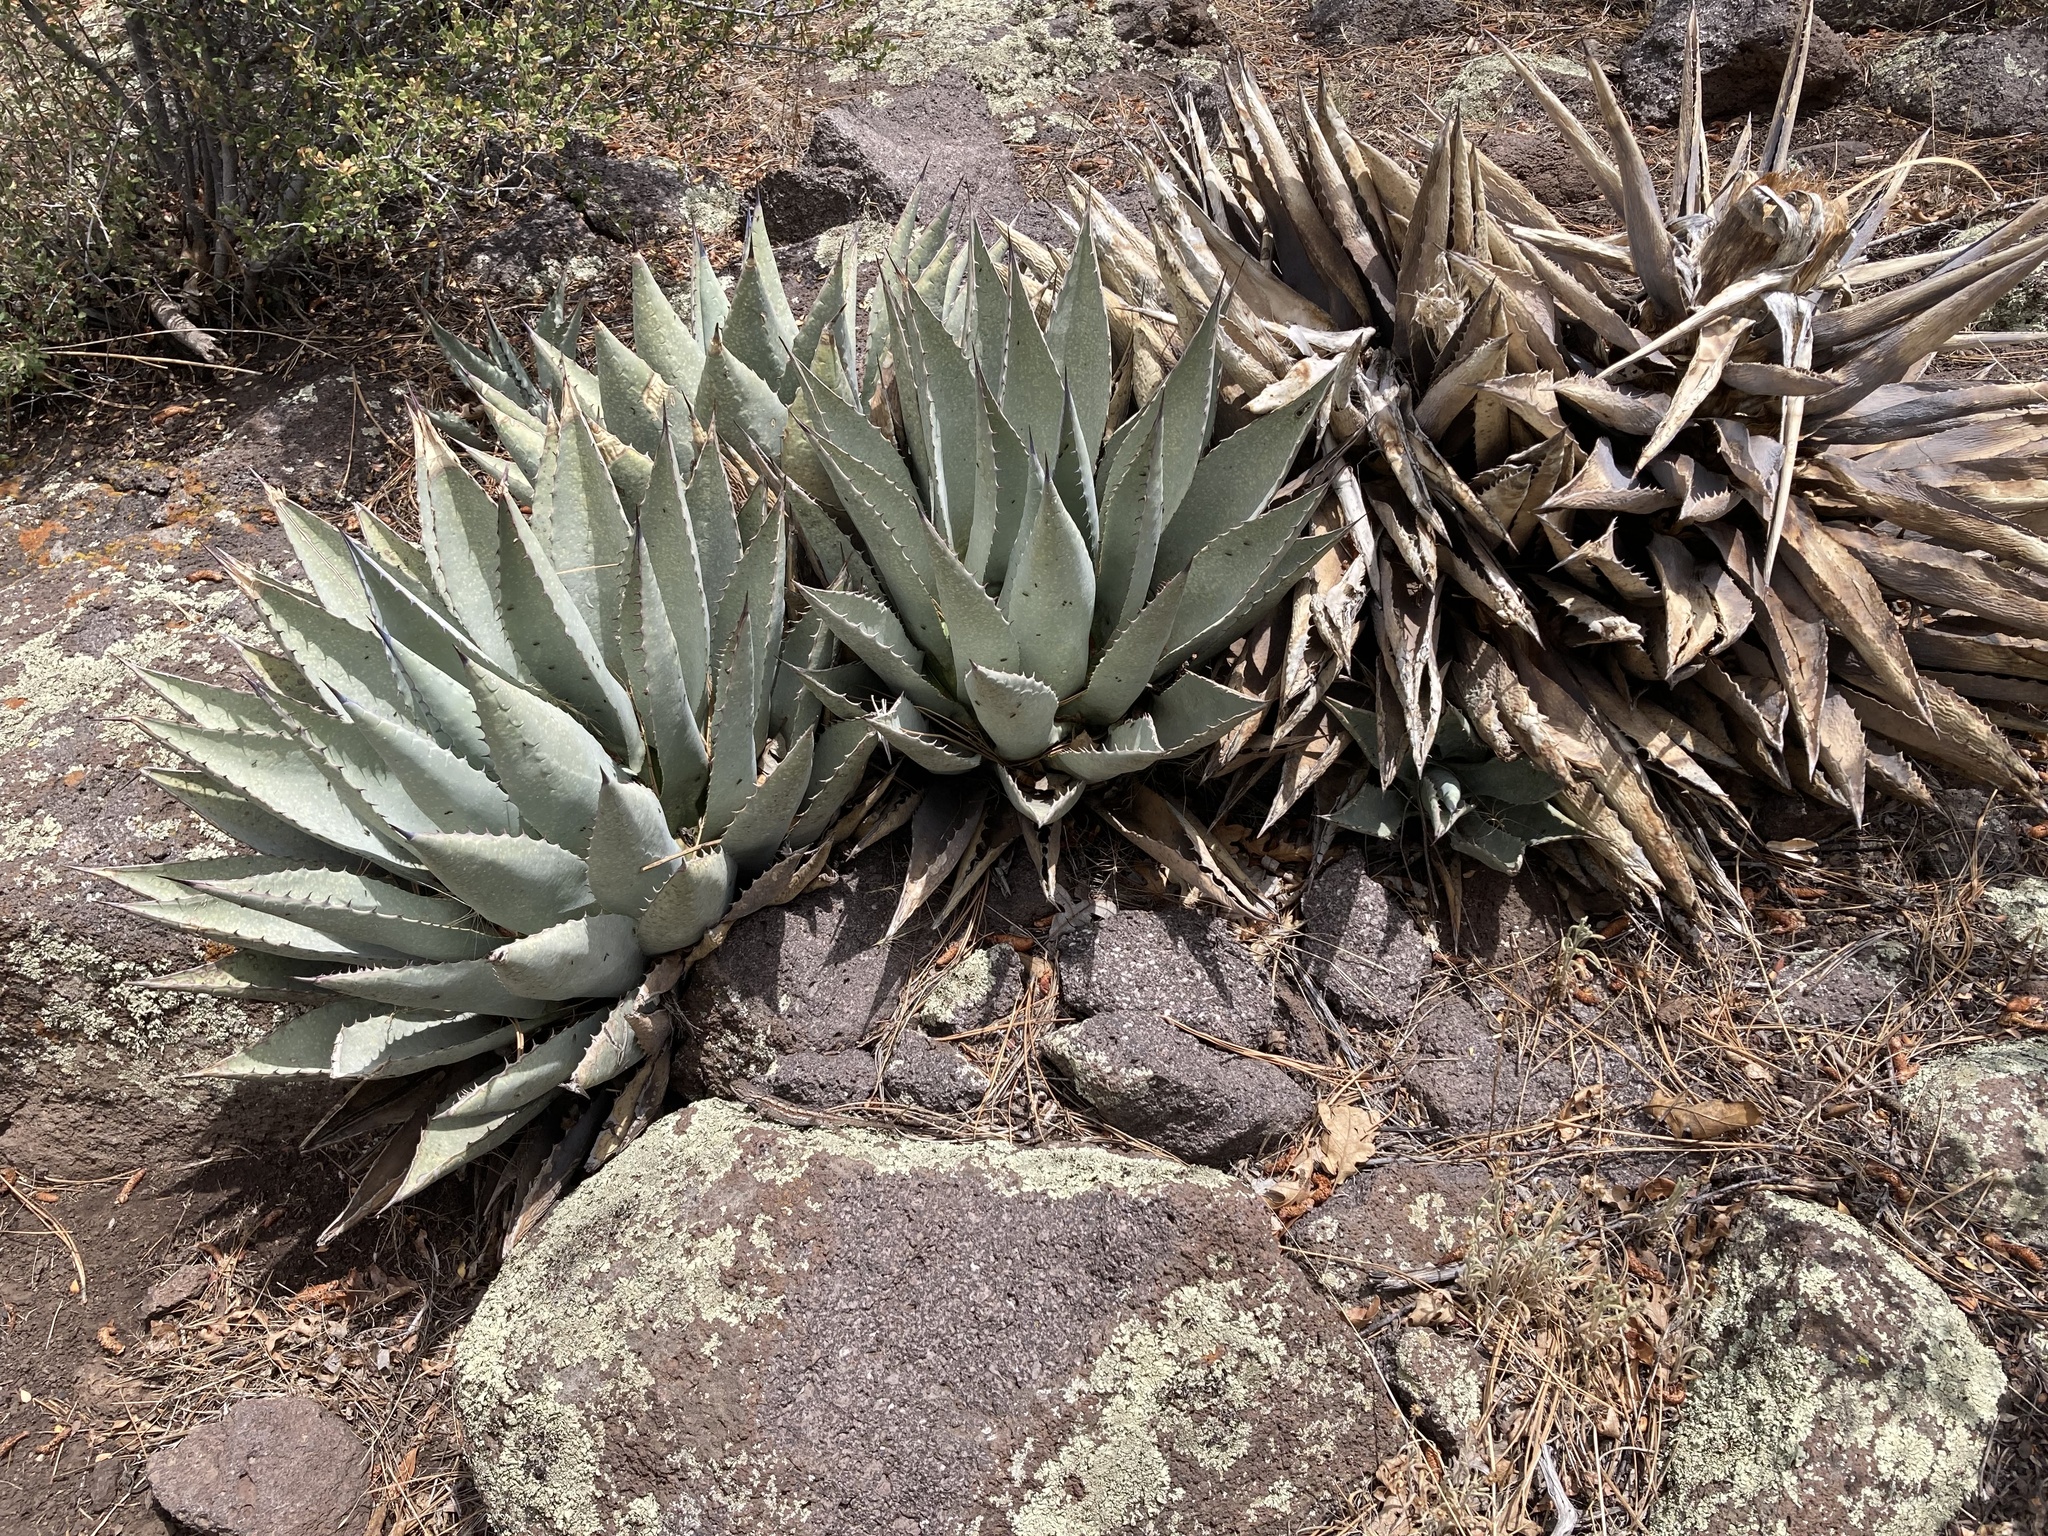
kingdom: Plantae
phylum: Tracheophyta
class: Liliopsida
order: Asparagales
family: Asparagaceae
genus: Agave
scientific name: Agave parryi
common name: Parry's agave
